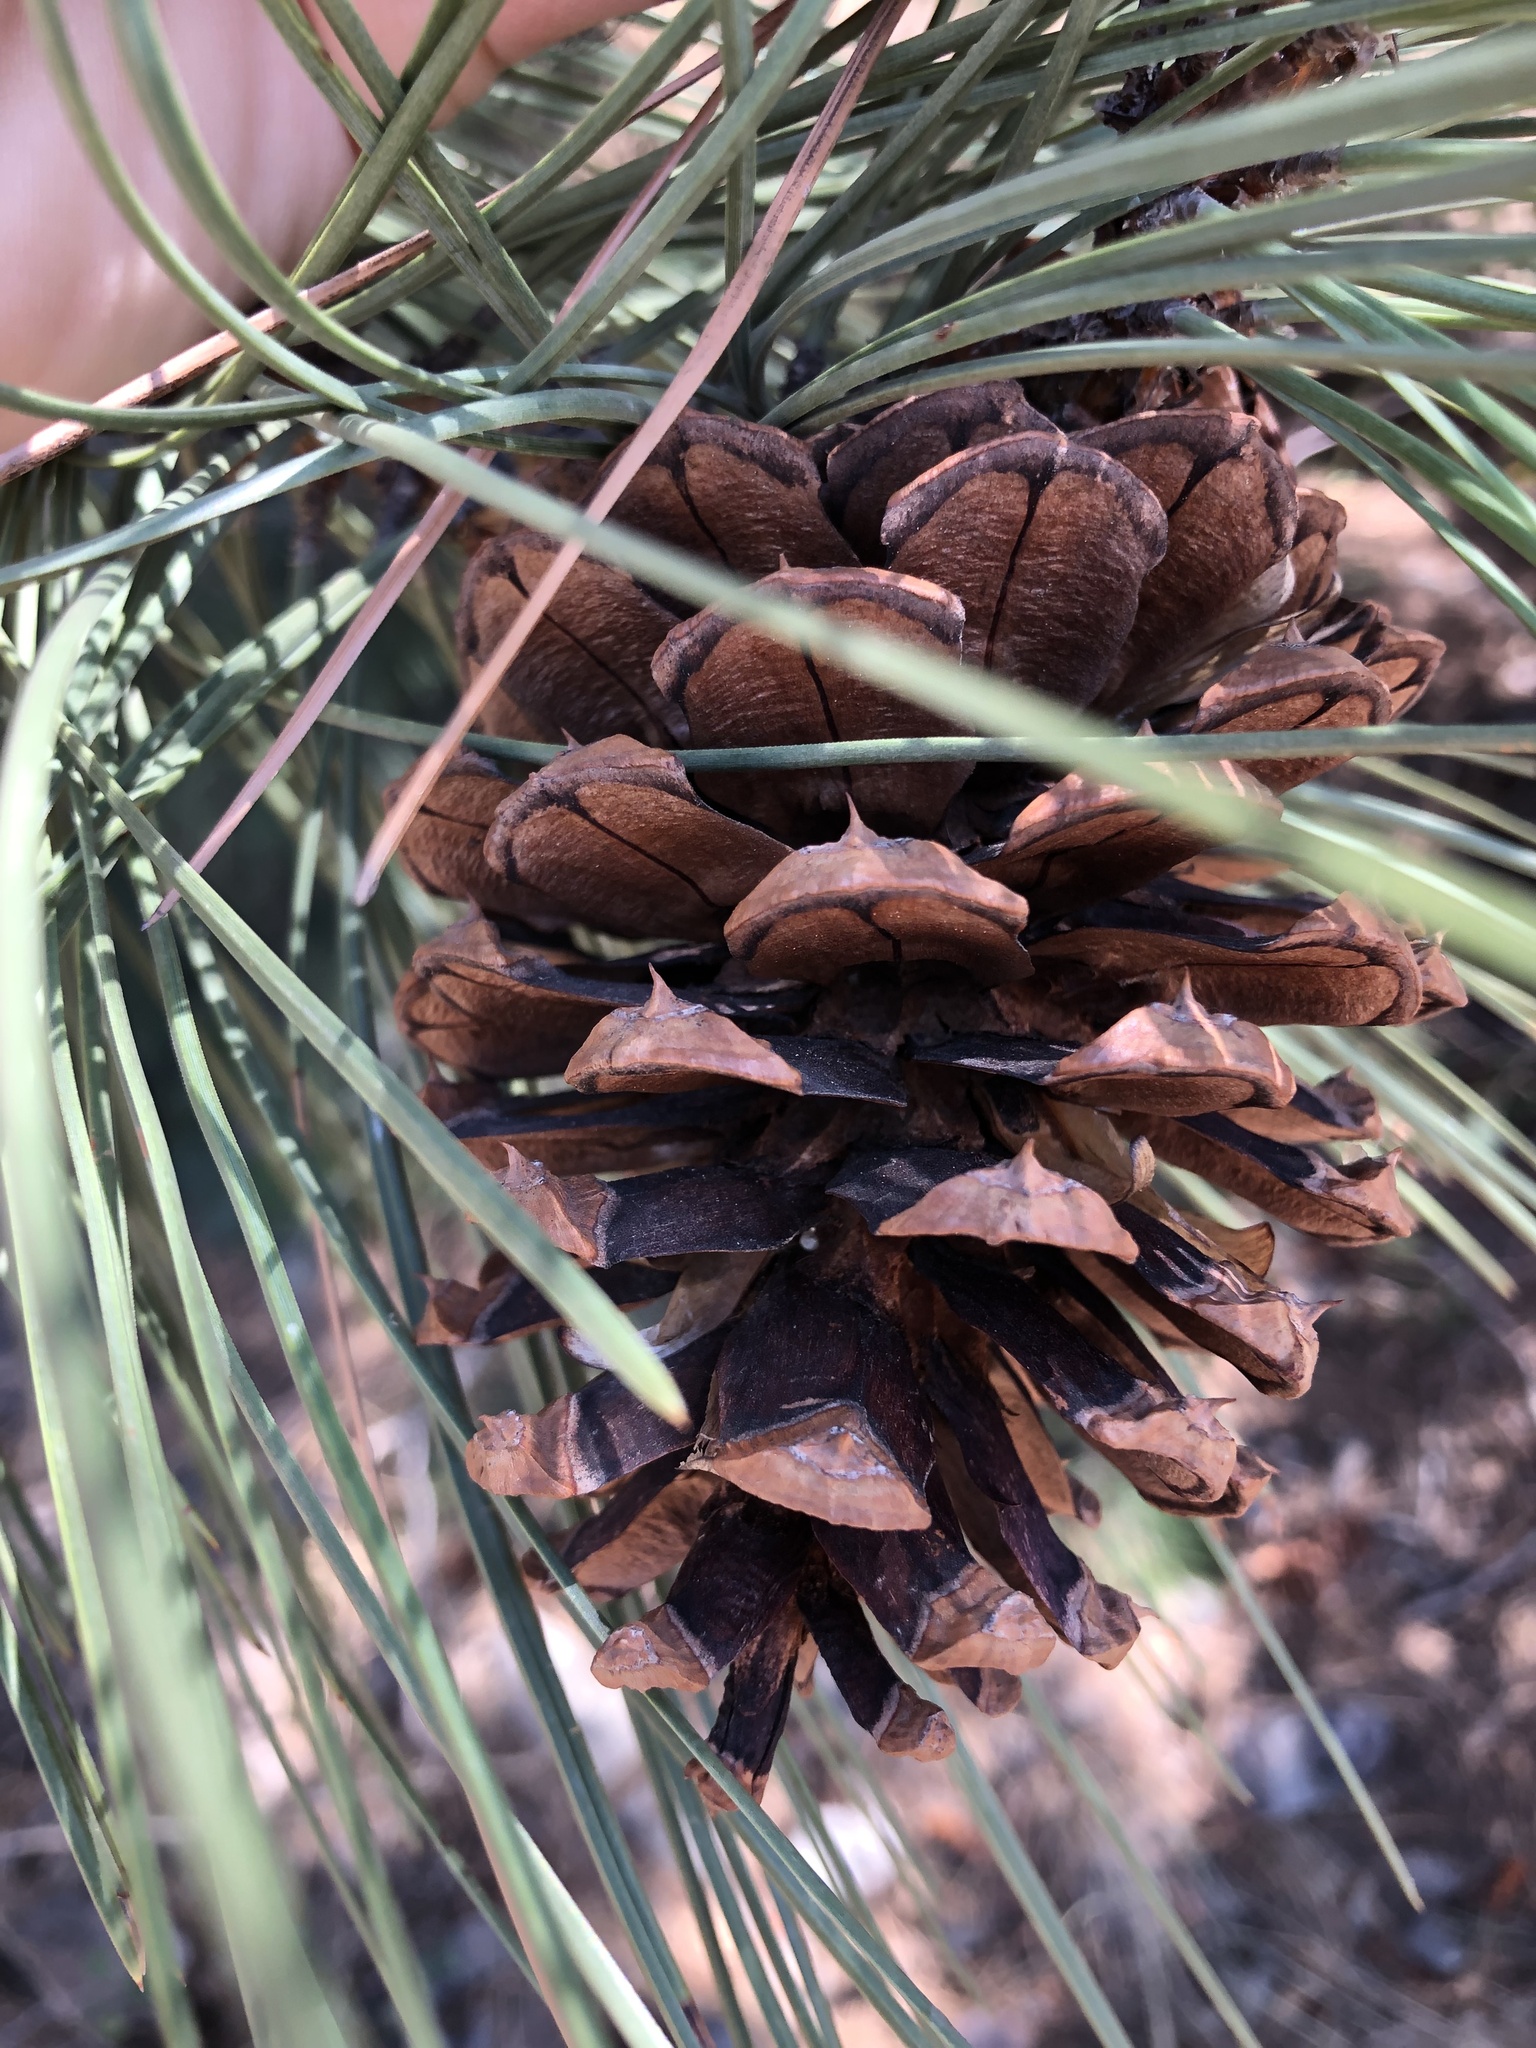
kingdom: Plantae
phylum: Tracheophyta
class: Pinopsida
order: Pinales
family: Pinaceae
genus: Pinus
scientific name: Pinus ponderosa
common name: Western yellow-pine
